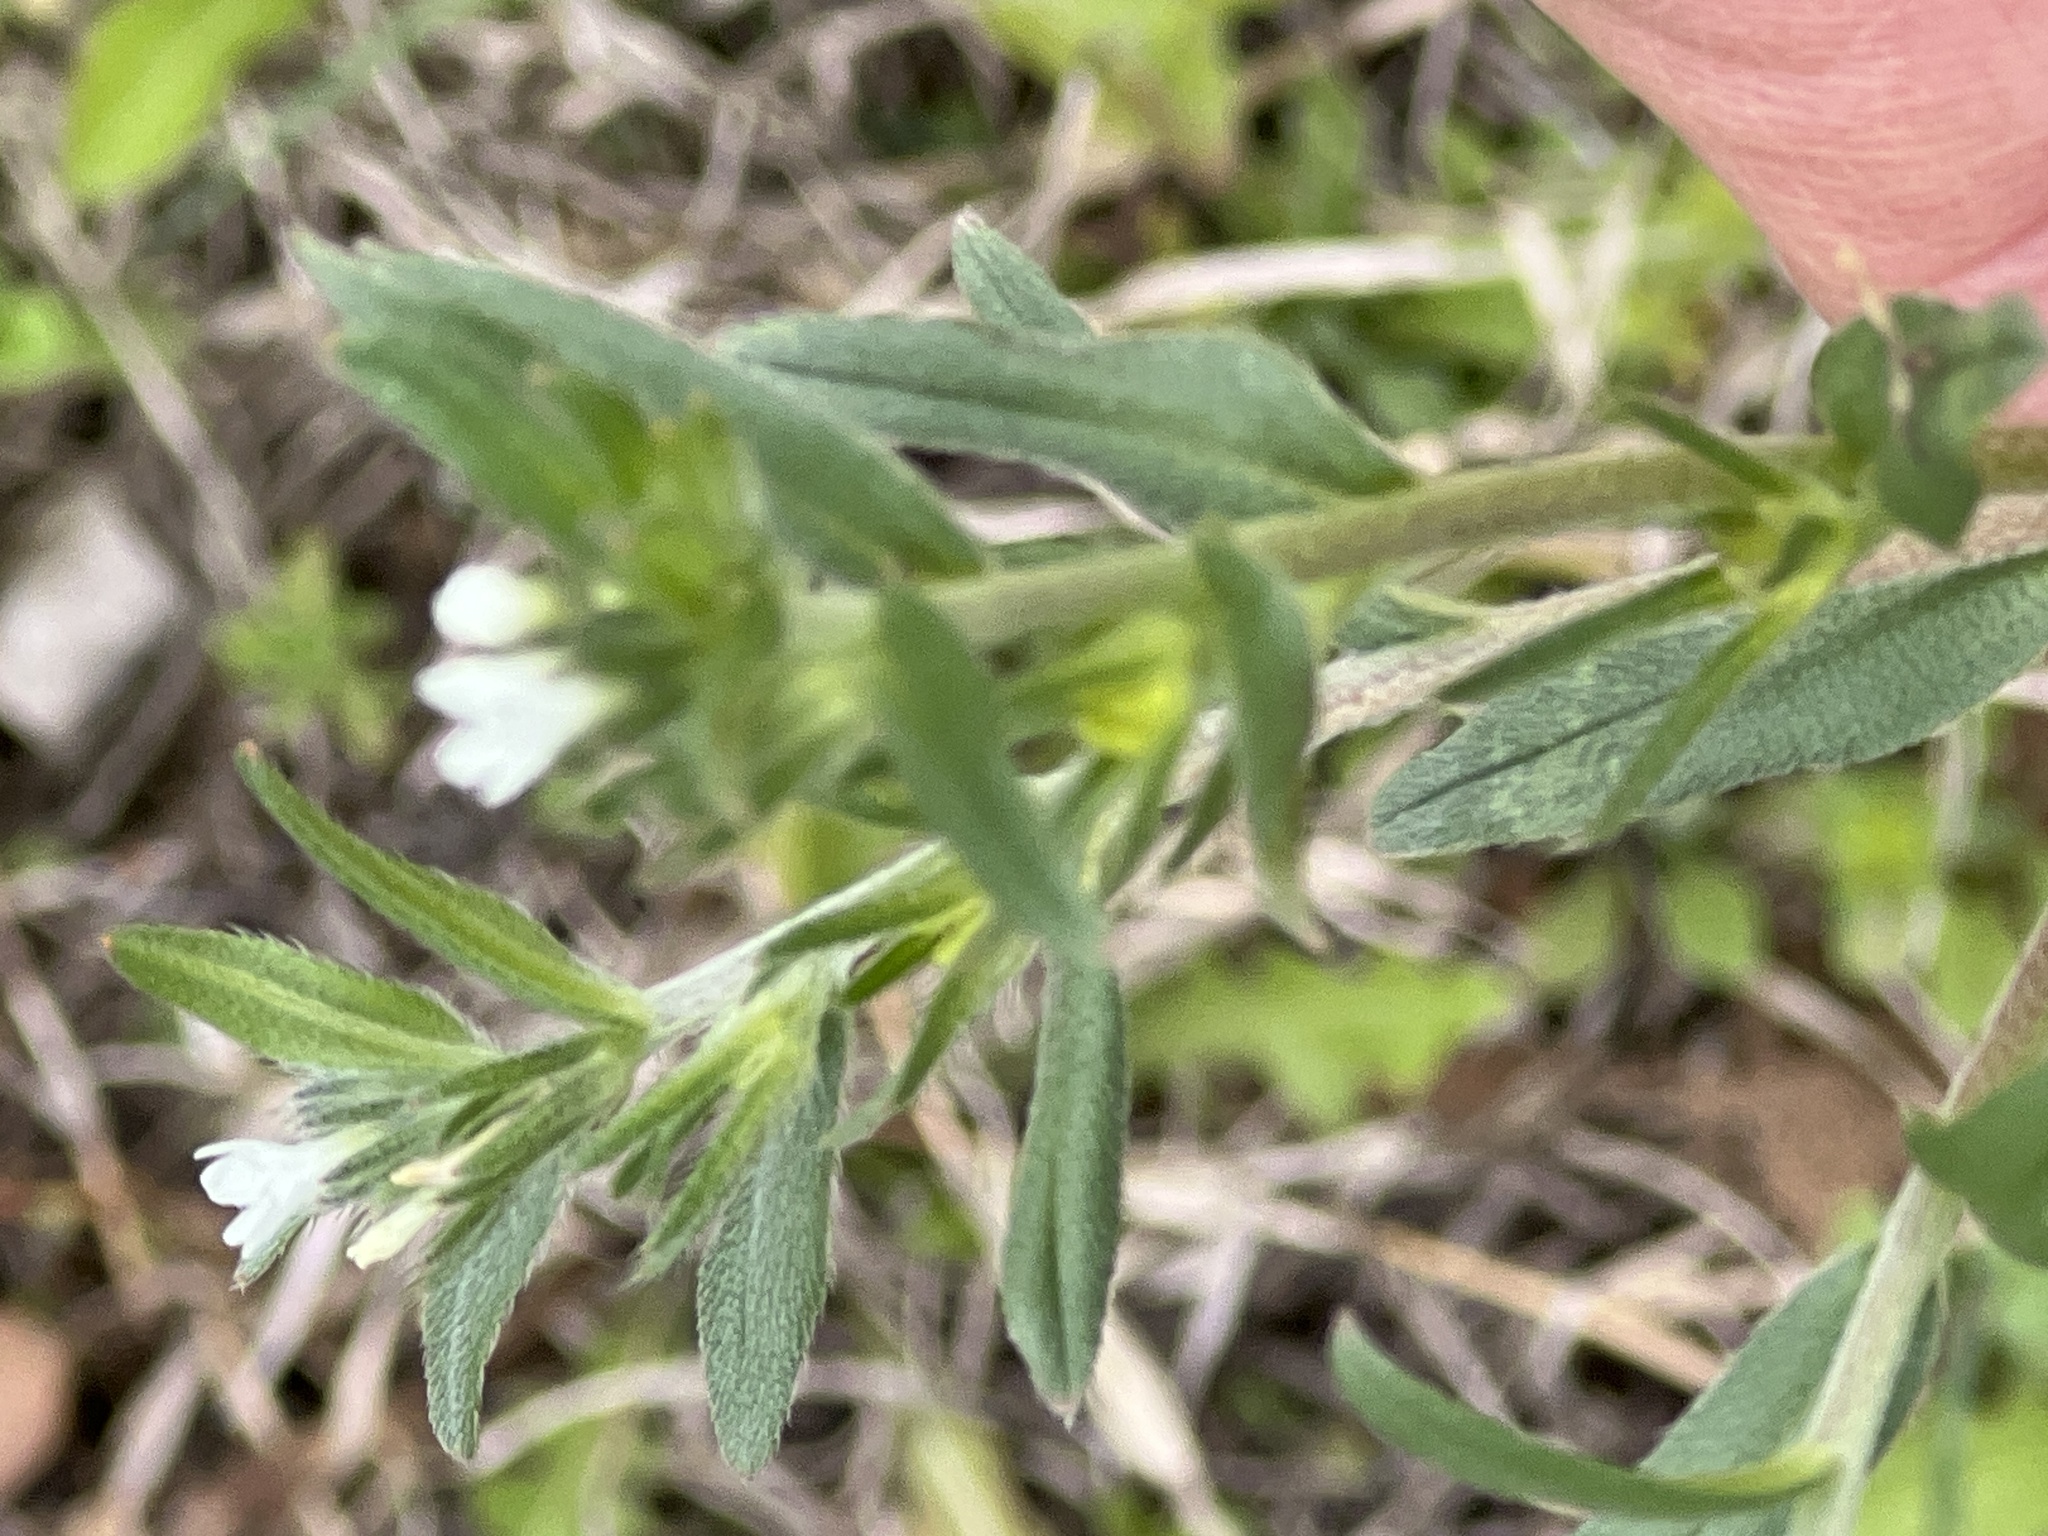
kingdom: Plantae
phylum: Tracheophyta
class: Magnoliopsida
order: Boraginales
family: Boraginaceae
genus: Buglossoides
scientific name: Buglossoides arvensis
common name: Corn gromwell
